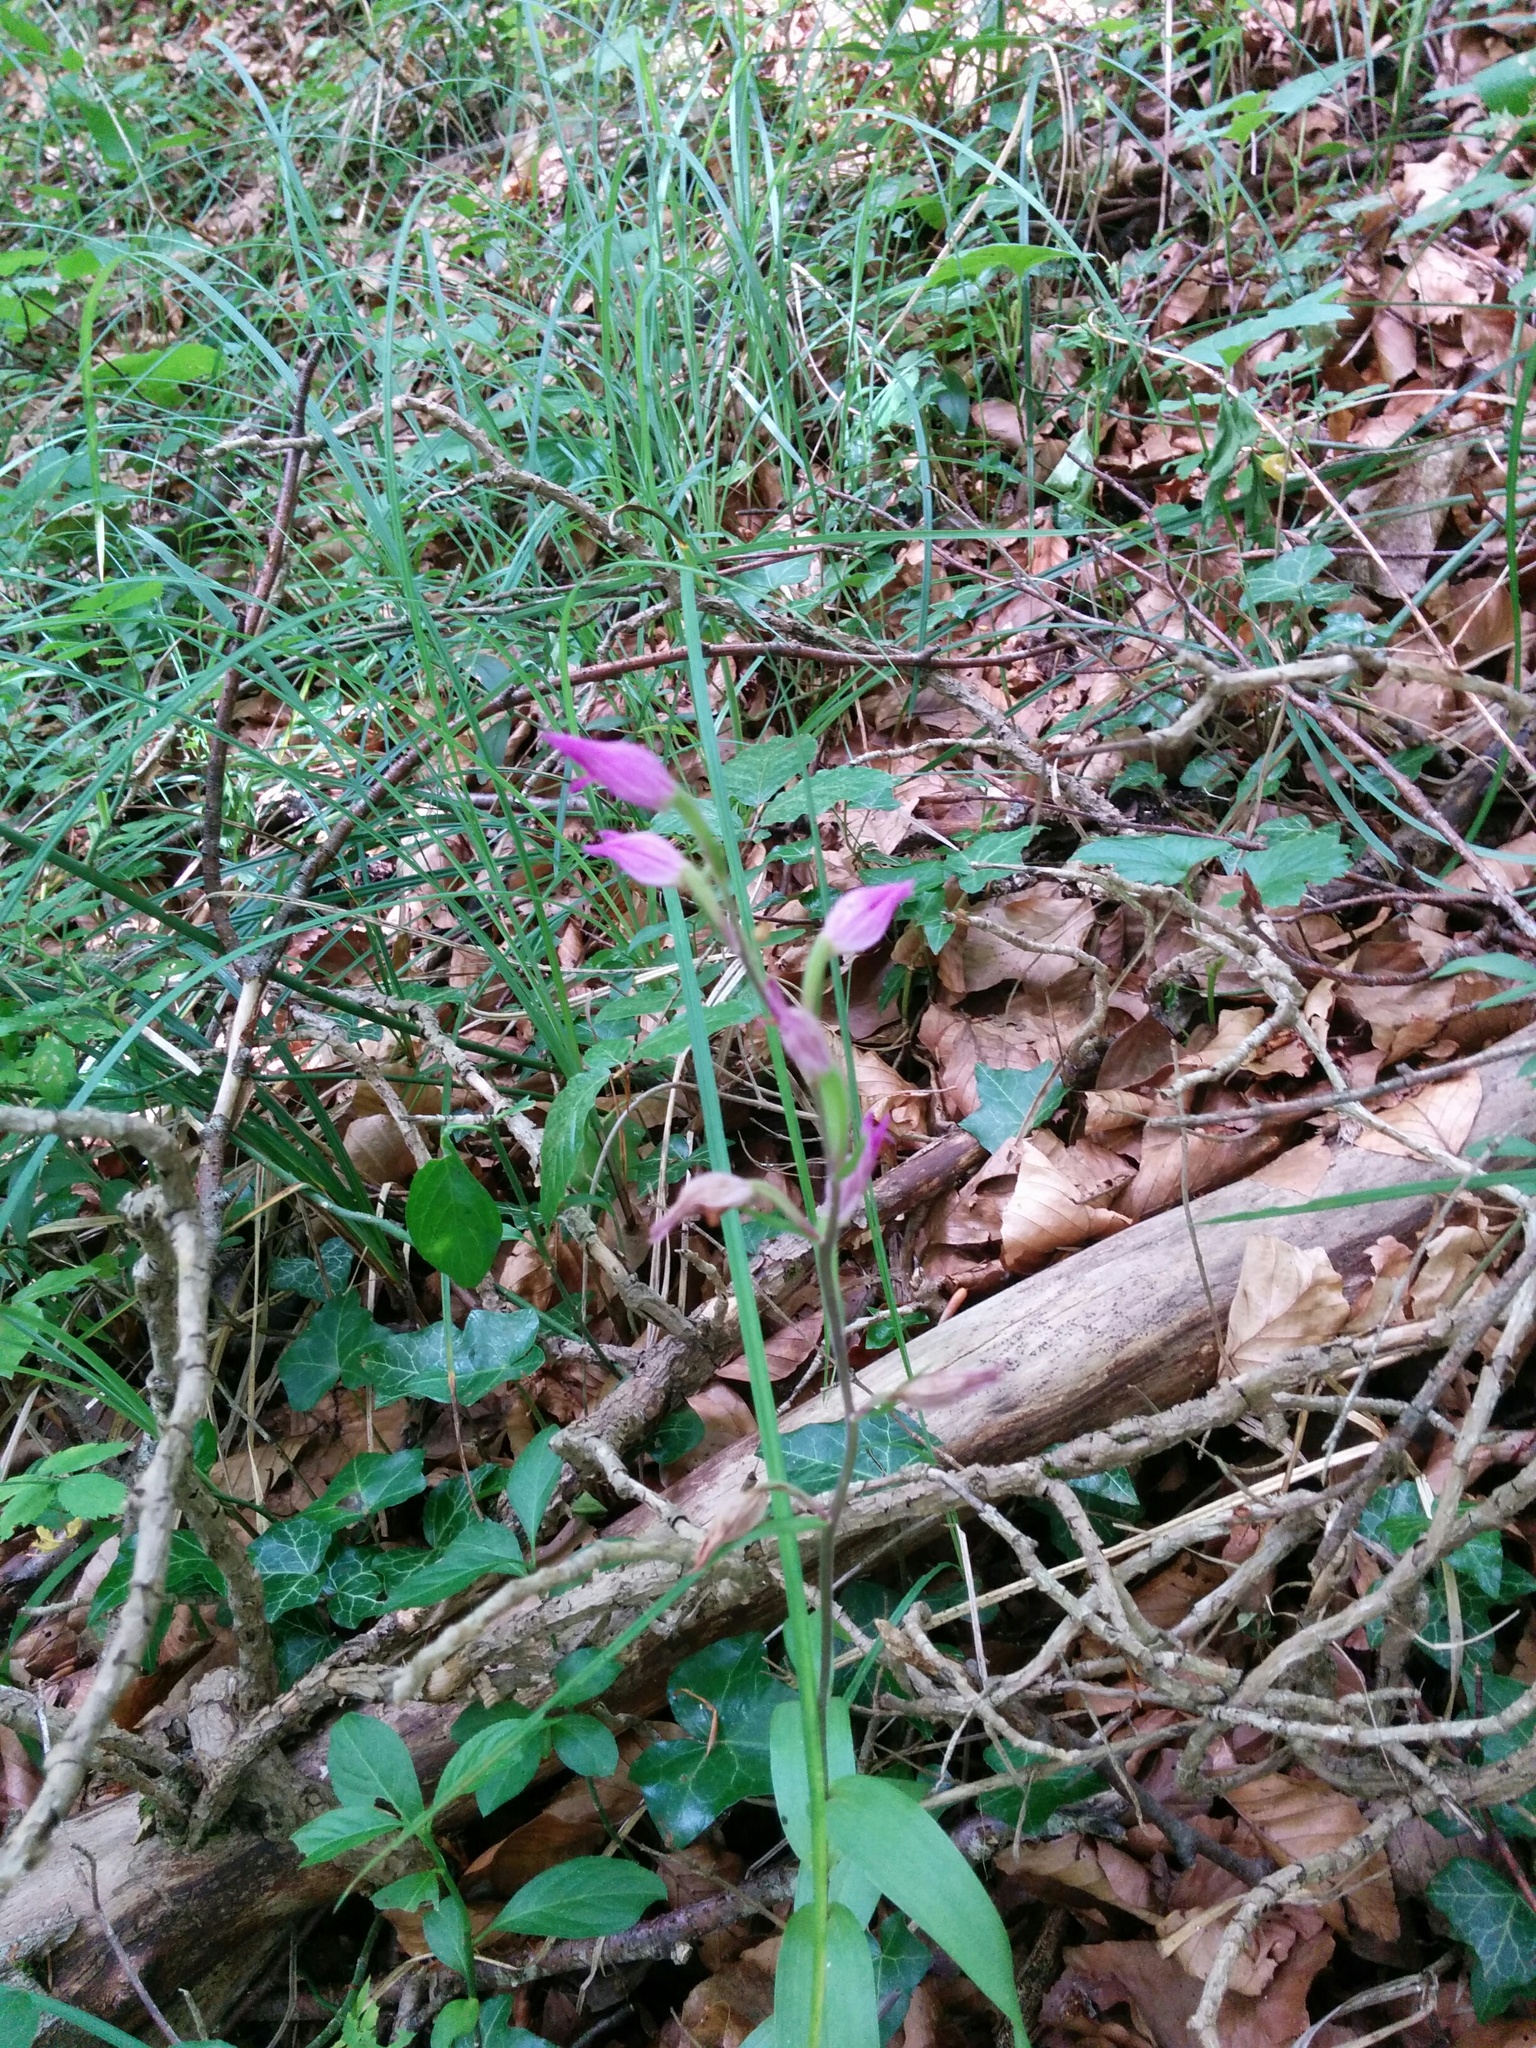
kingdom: Plantae
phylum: Tracheophyta
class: Liliopsida
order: Asparagales
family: Orchidaceae
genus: Cephalanthera
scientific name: Cephalanthera rubra
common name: Red helleborine
